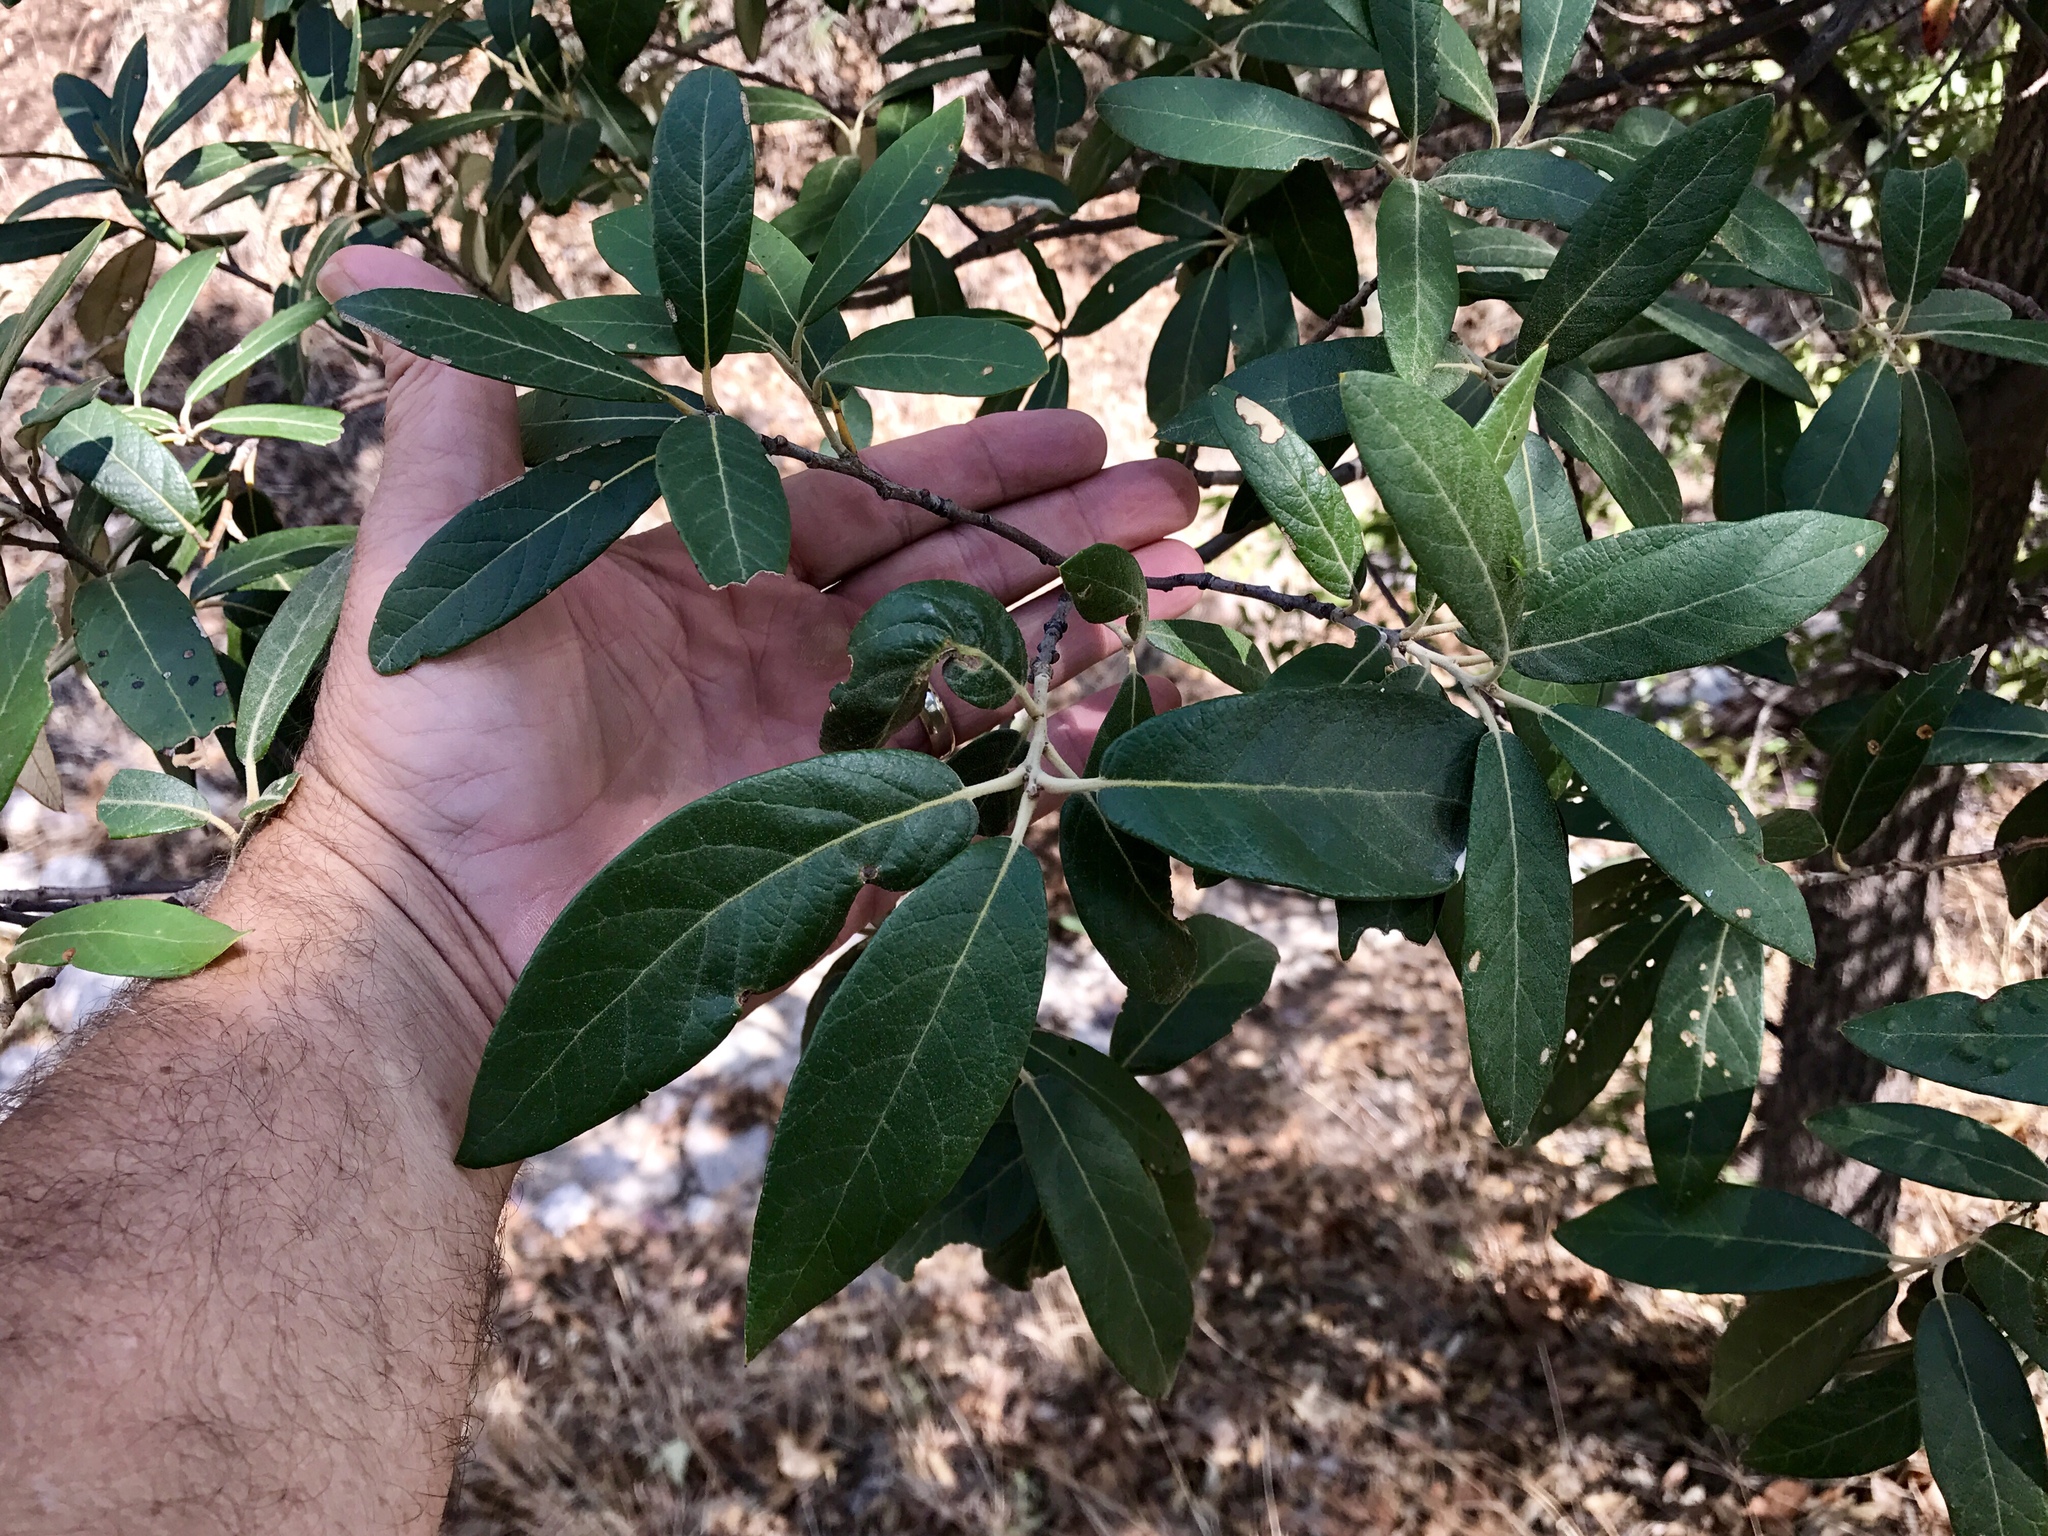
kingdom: Plantae
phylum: Tracheophyta
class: Magnoliopsida
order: Fagales
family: Fagaceae
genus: Quercus
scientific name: Quercus hypoleucoides
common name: Silverleaf oak
